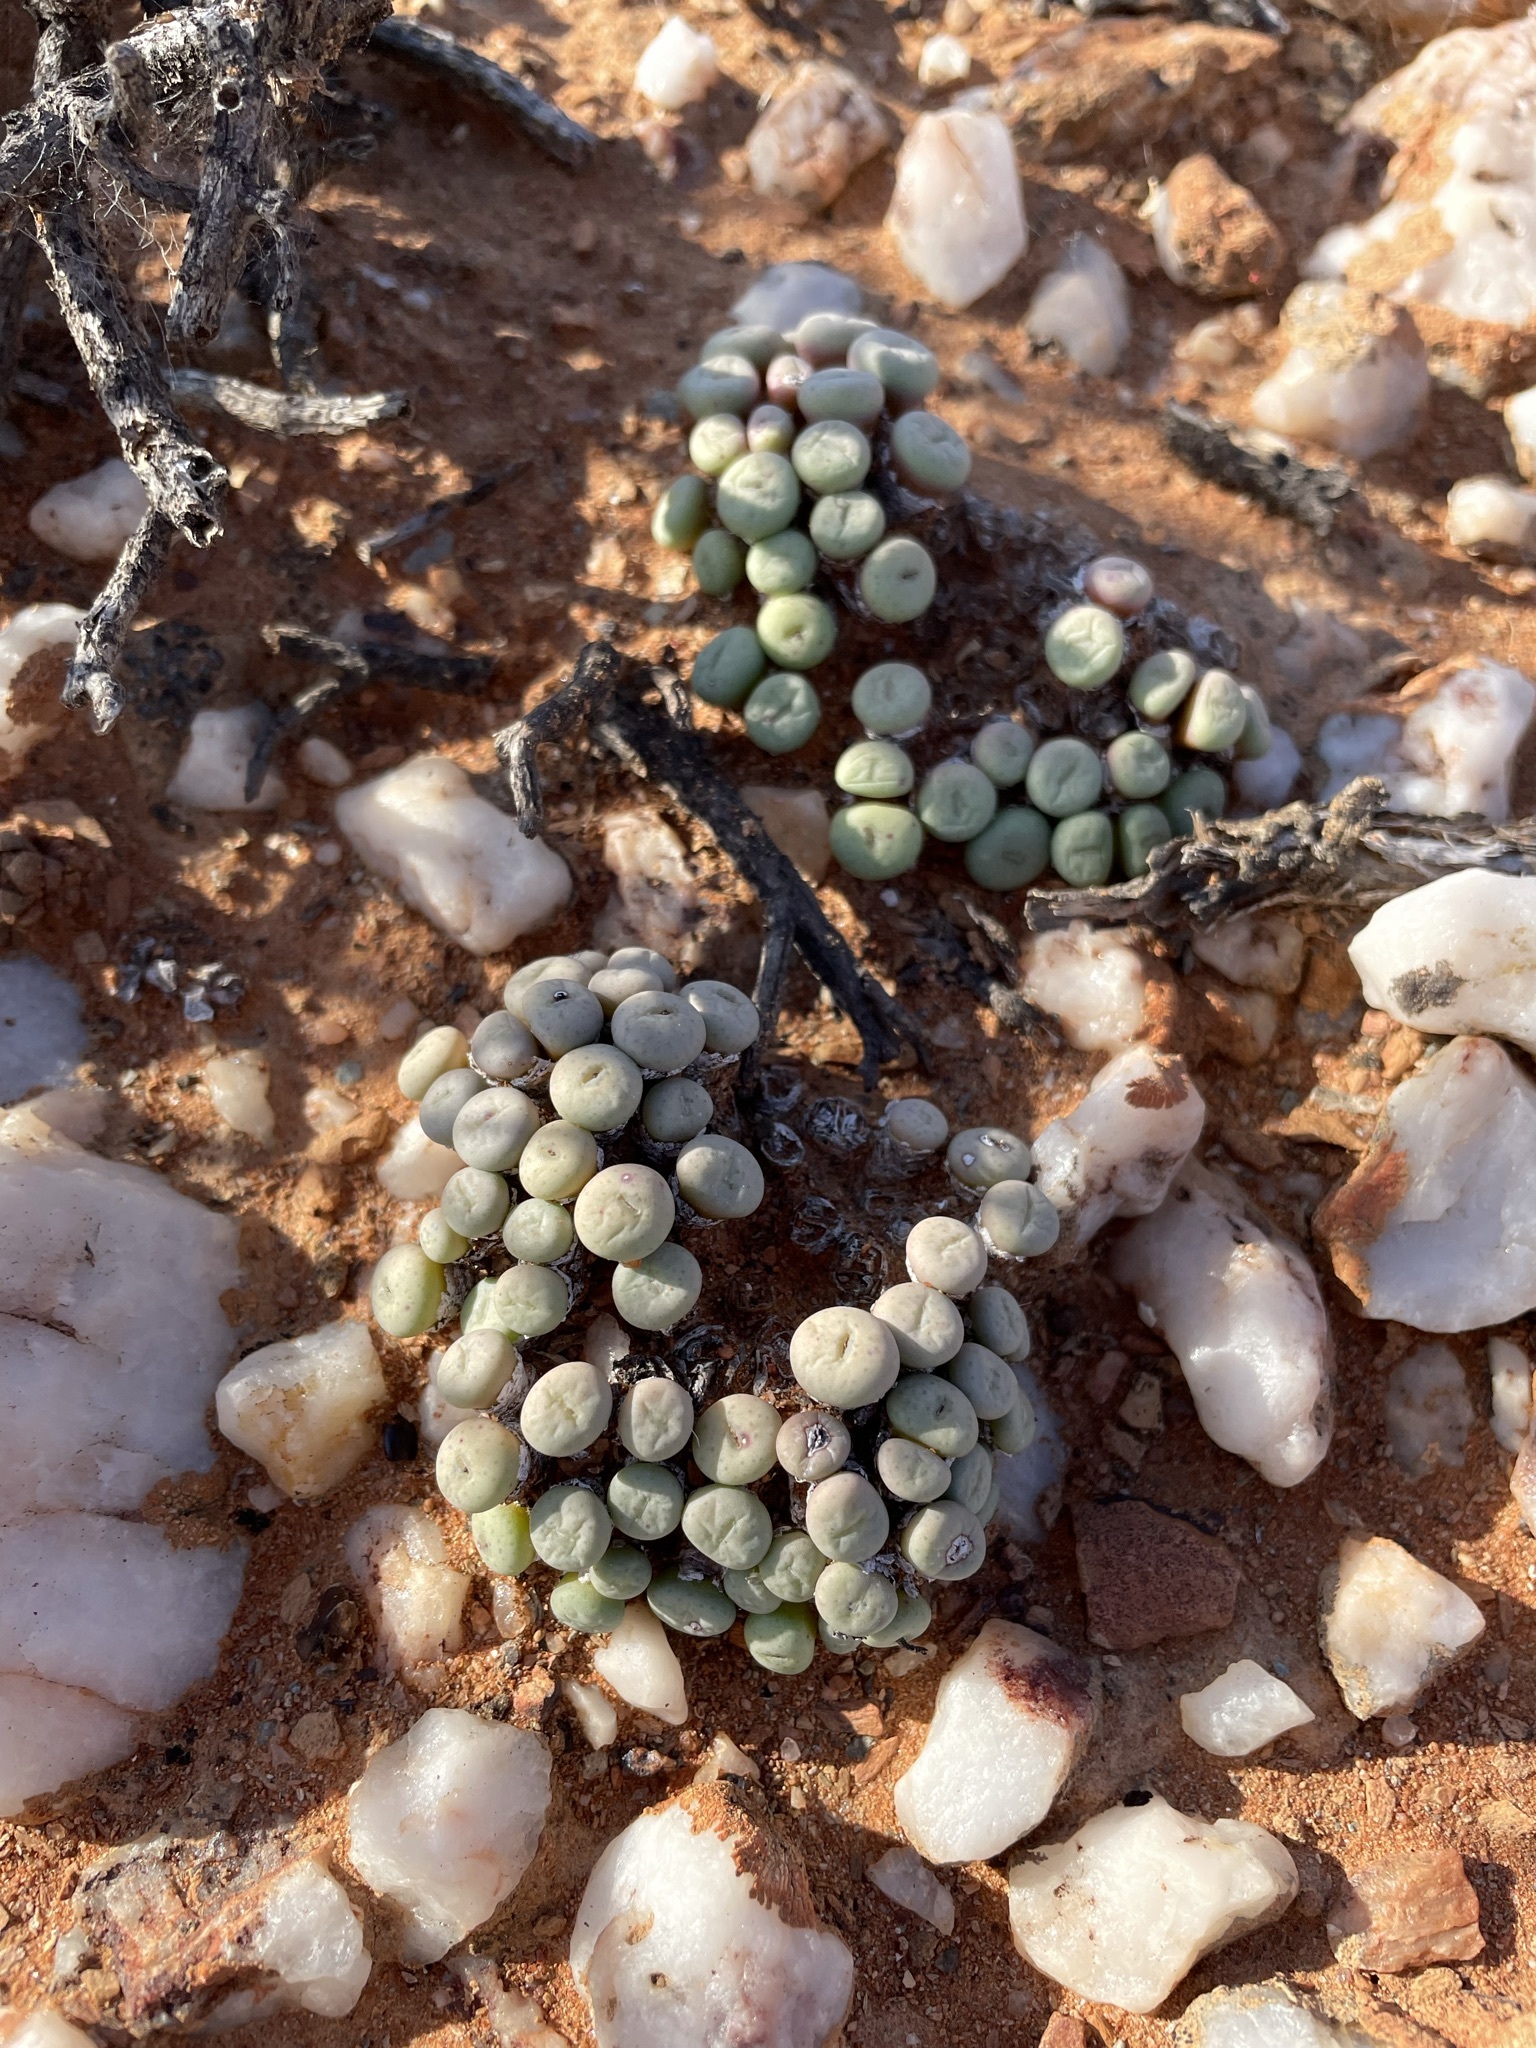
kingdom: Plantae
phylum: Tracheophyta
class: Magnoliopsida
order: Caryophyllales
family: Aizoaceae
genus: Conophytum
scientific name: Conophytum minutum
